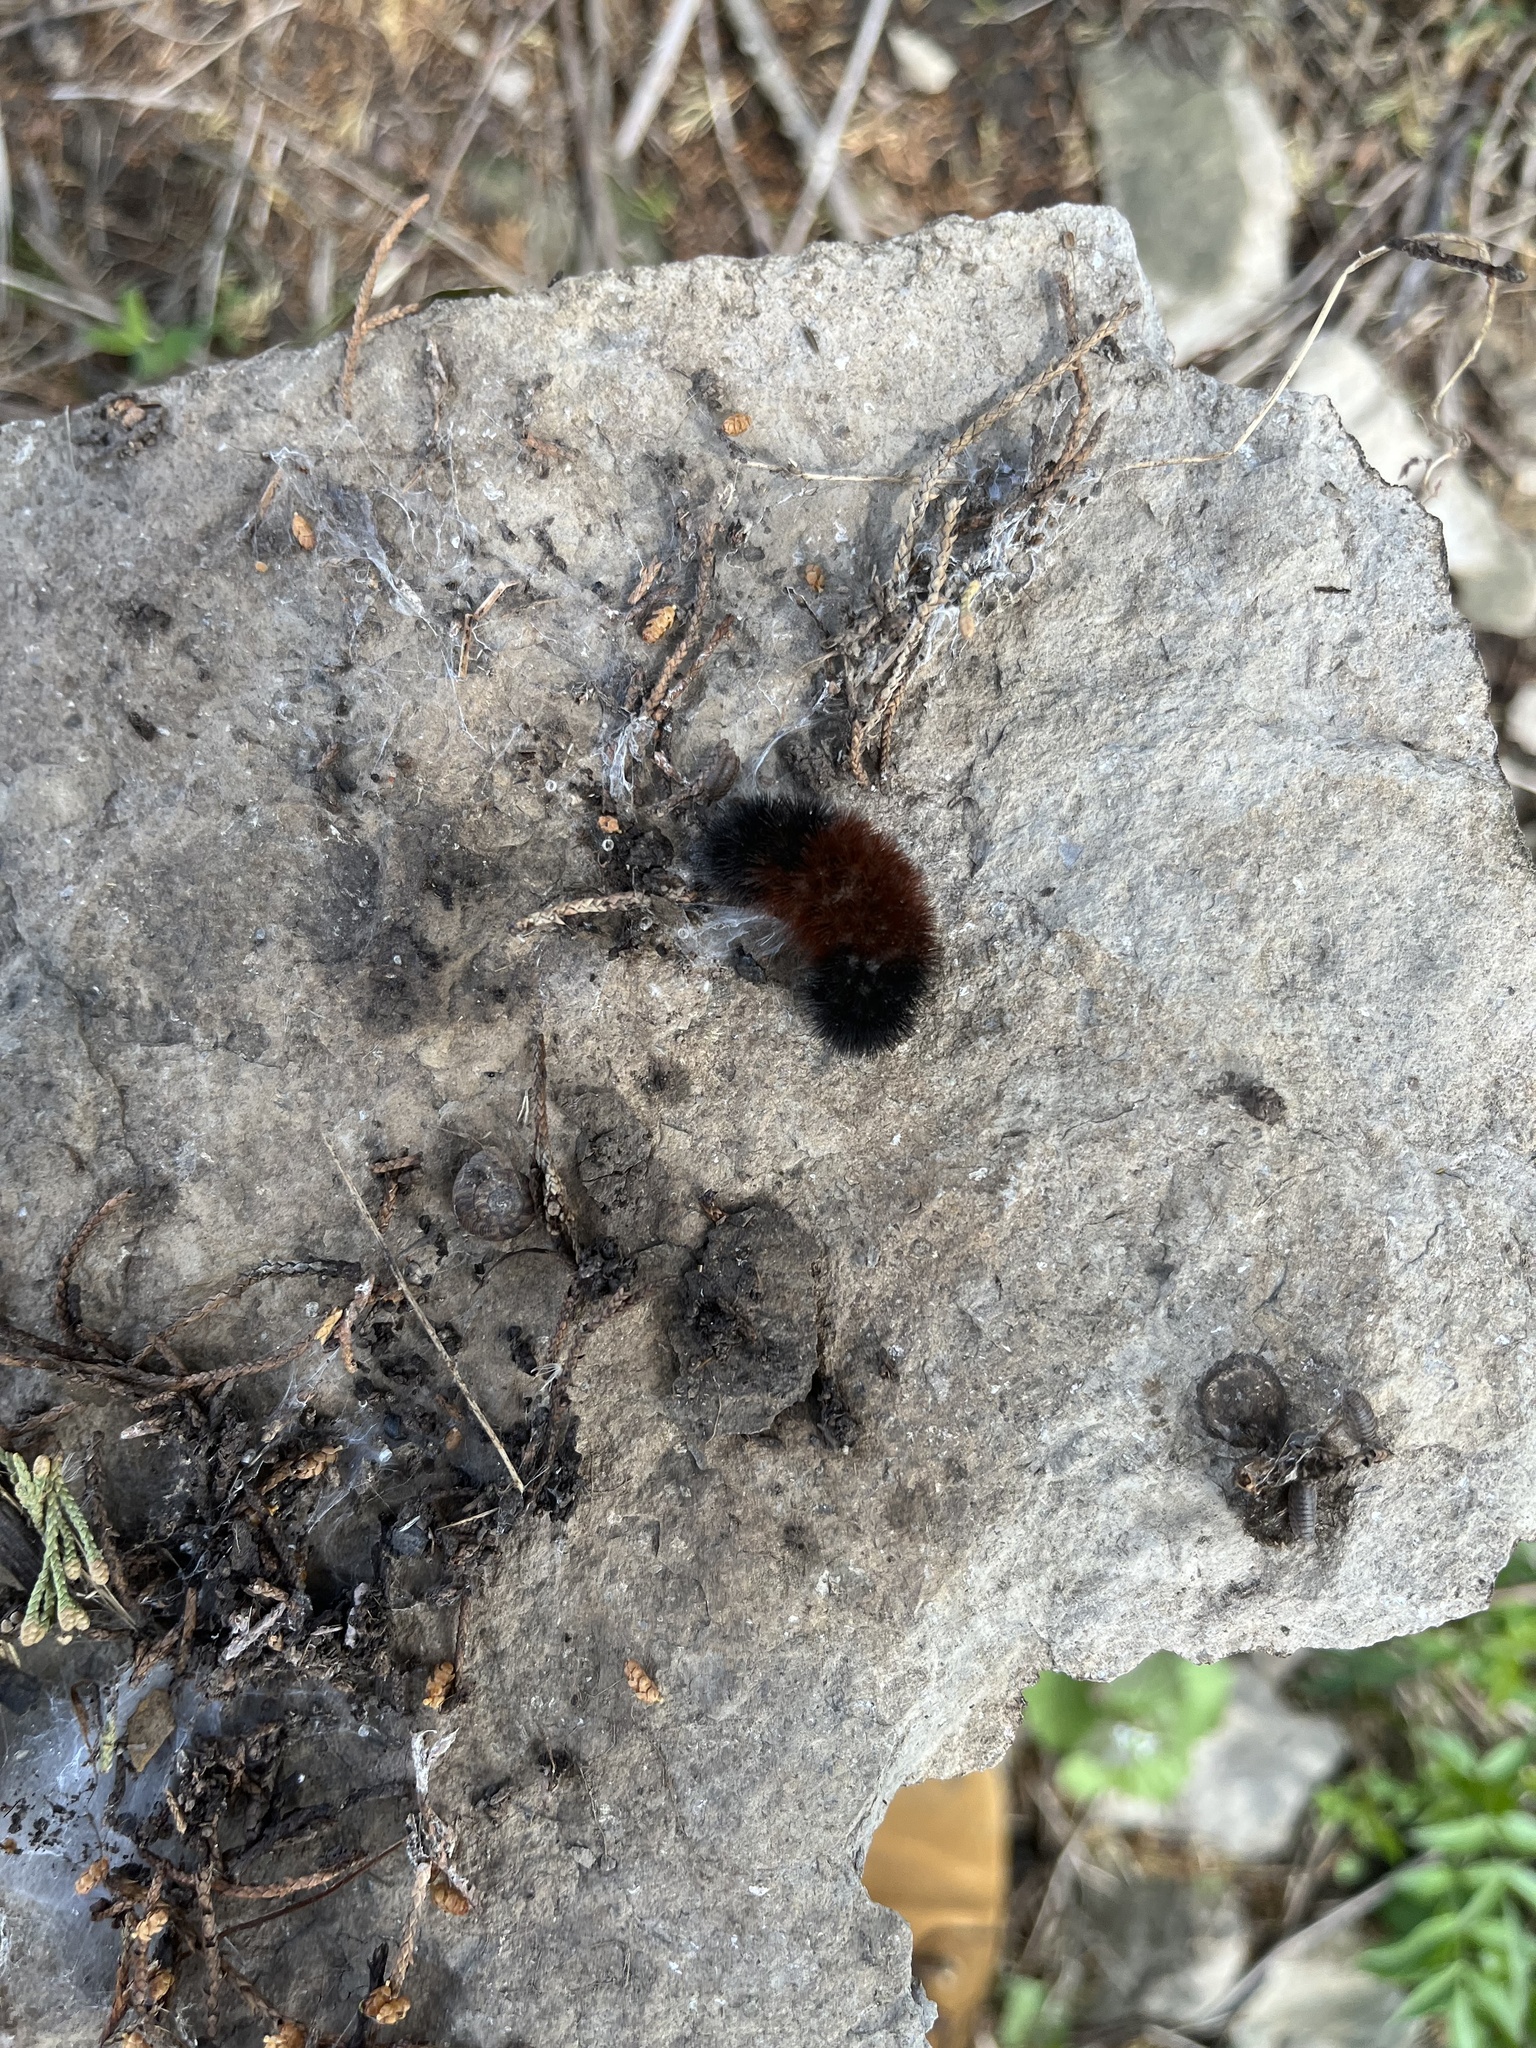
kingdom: Animalia
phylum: Arthropoda
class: Insecta
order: Lepidoptera
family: Erebidae
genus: Pyrrharctia
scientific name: Pyrrharctia isabella
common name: Isabella tiger moth
